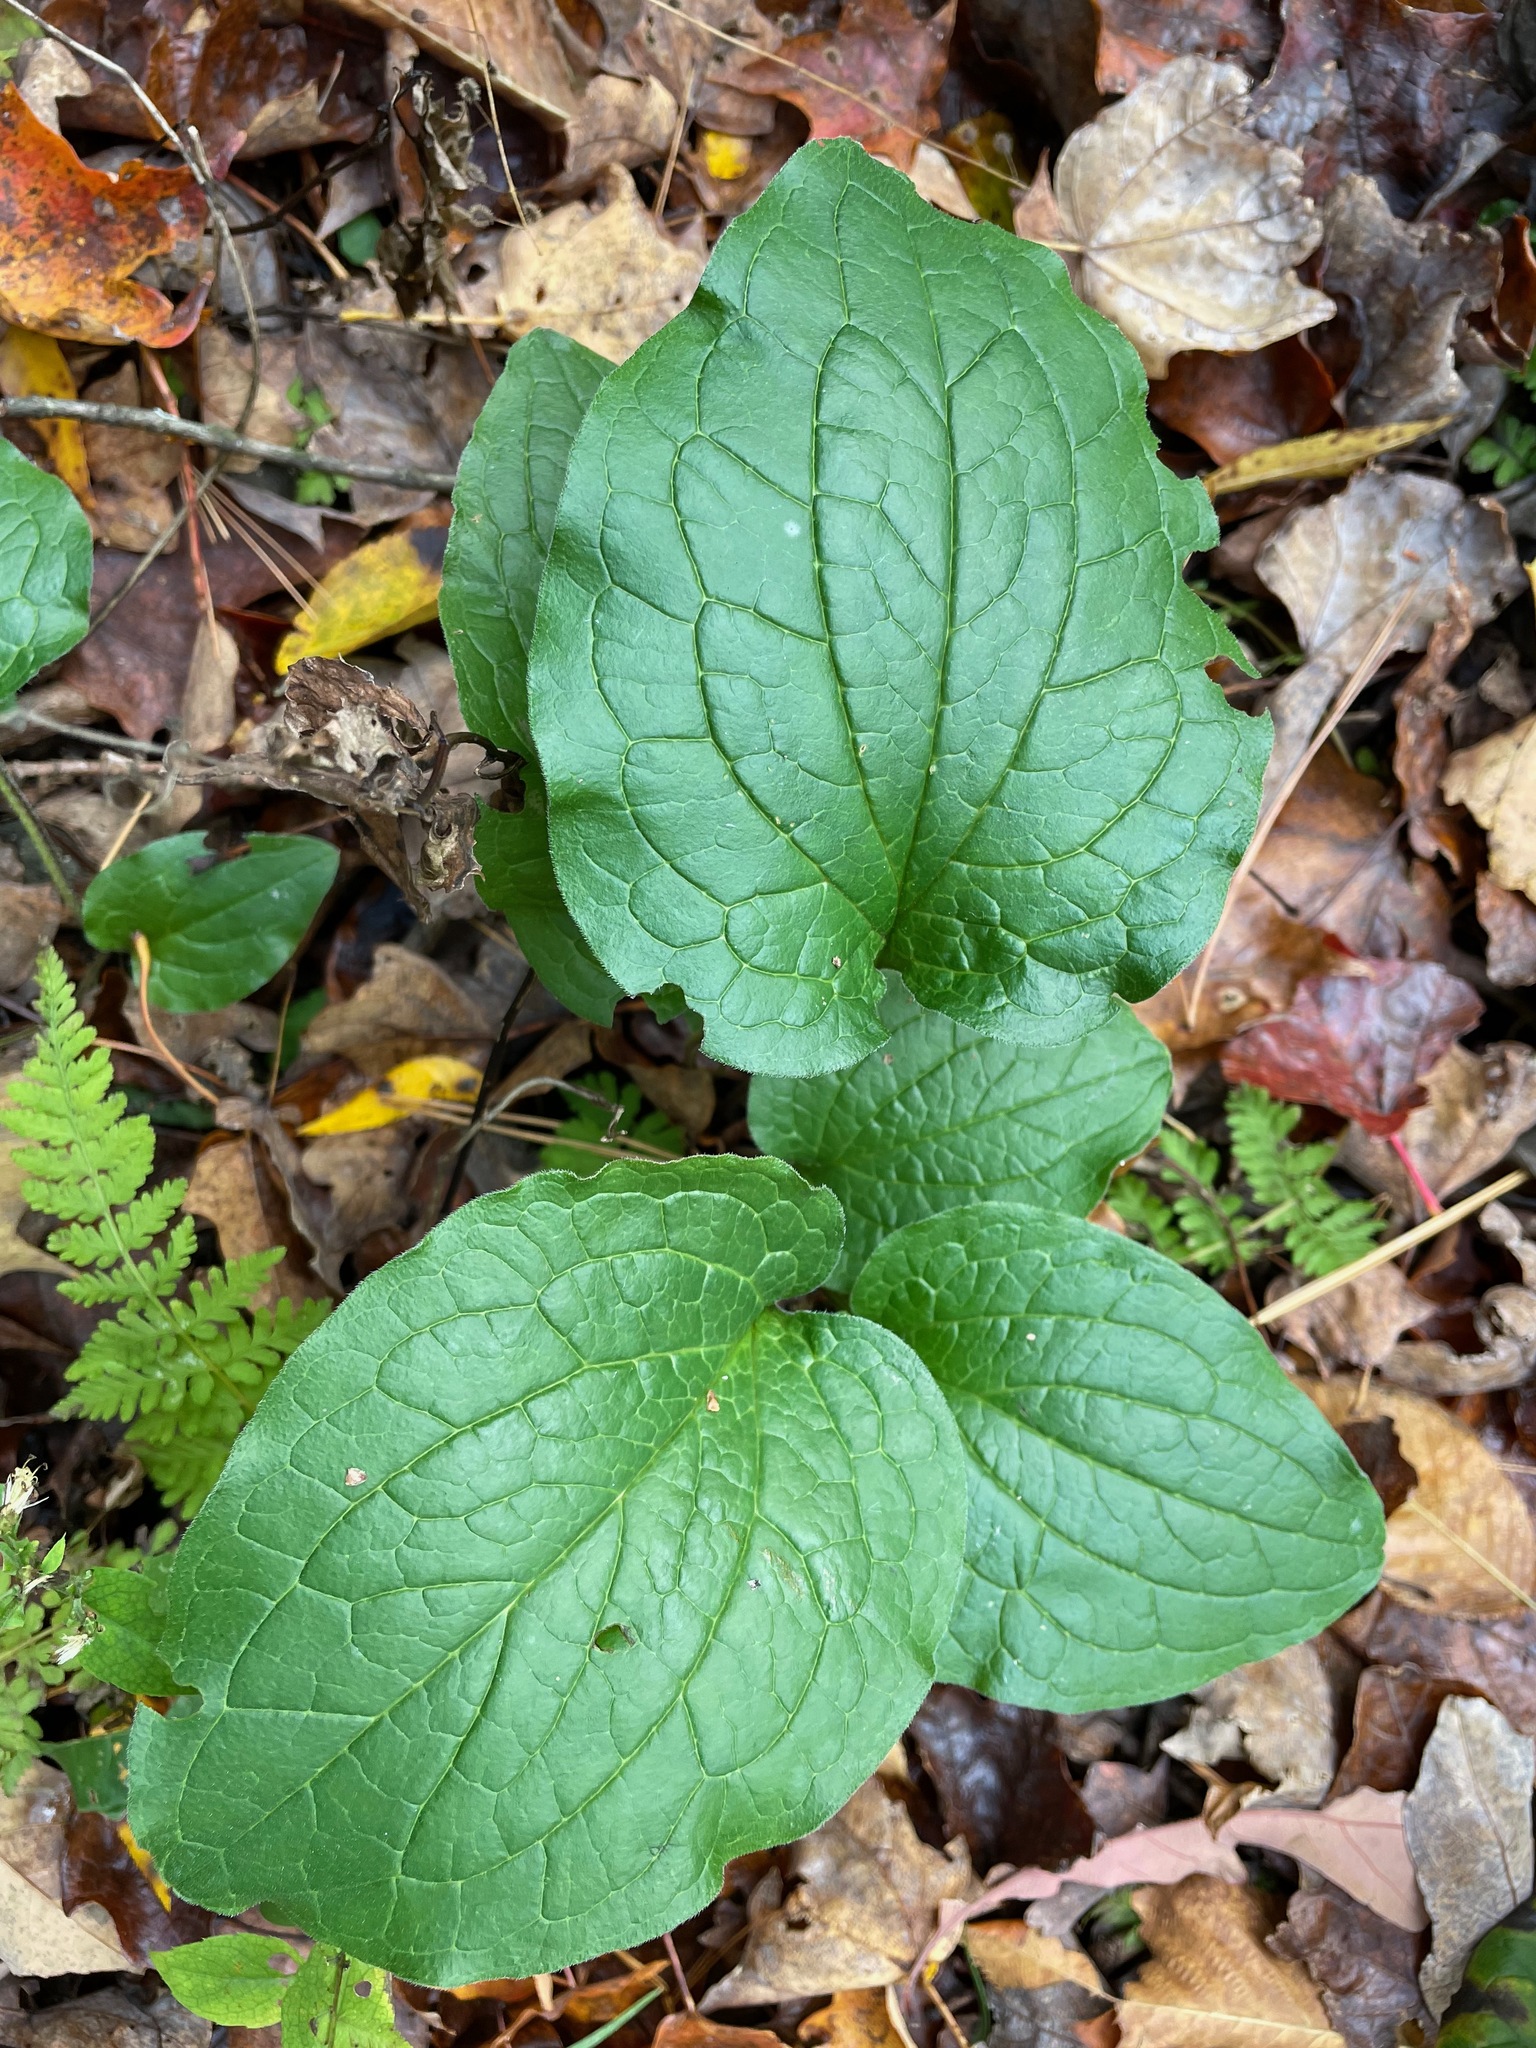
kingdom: Plantae
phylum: Tracheophyta
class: Magnoliopsida
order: Boraginales
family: Boraginaceae
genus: Hackelia
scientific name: Hackelia virginiana
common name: Beggar's-lice
